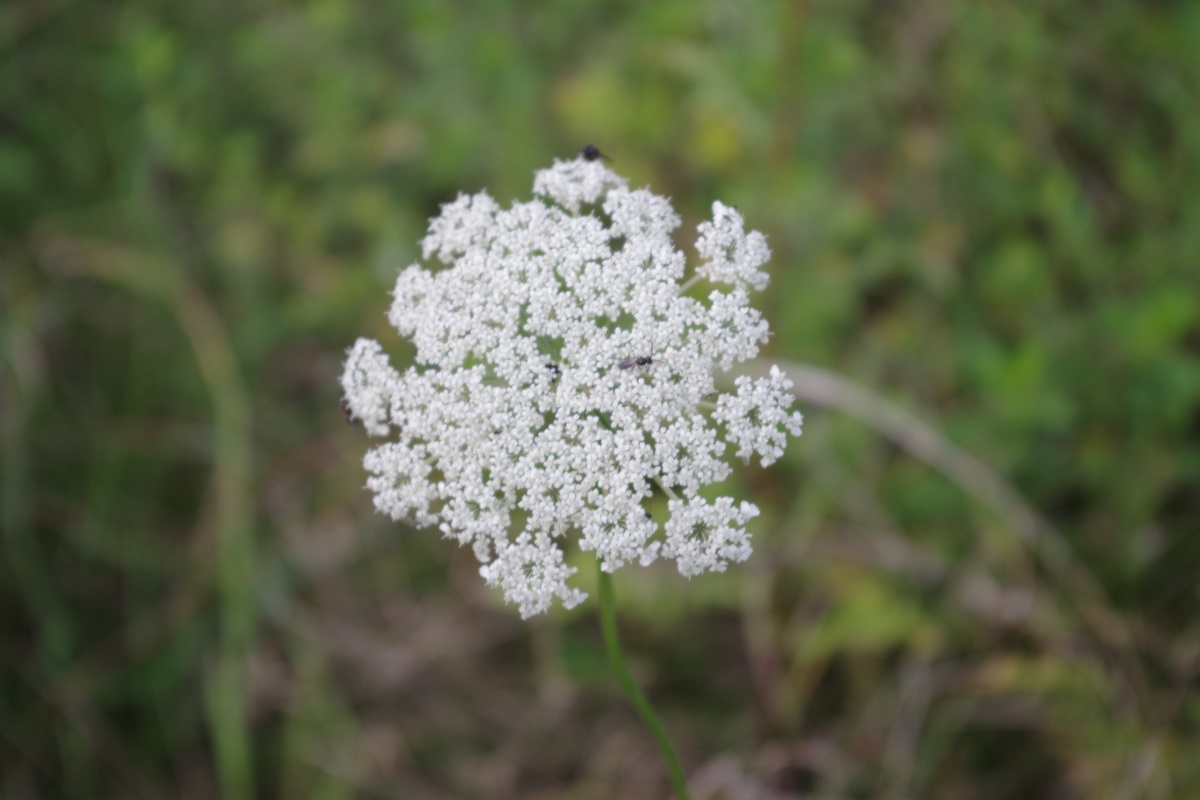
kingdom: Plantae
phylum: Tracheophyta
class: Magnoliopsida
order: Apiales
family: Apiaceae
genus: Daucus
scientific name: Daucus carota
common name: Wild carrot
